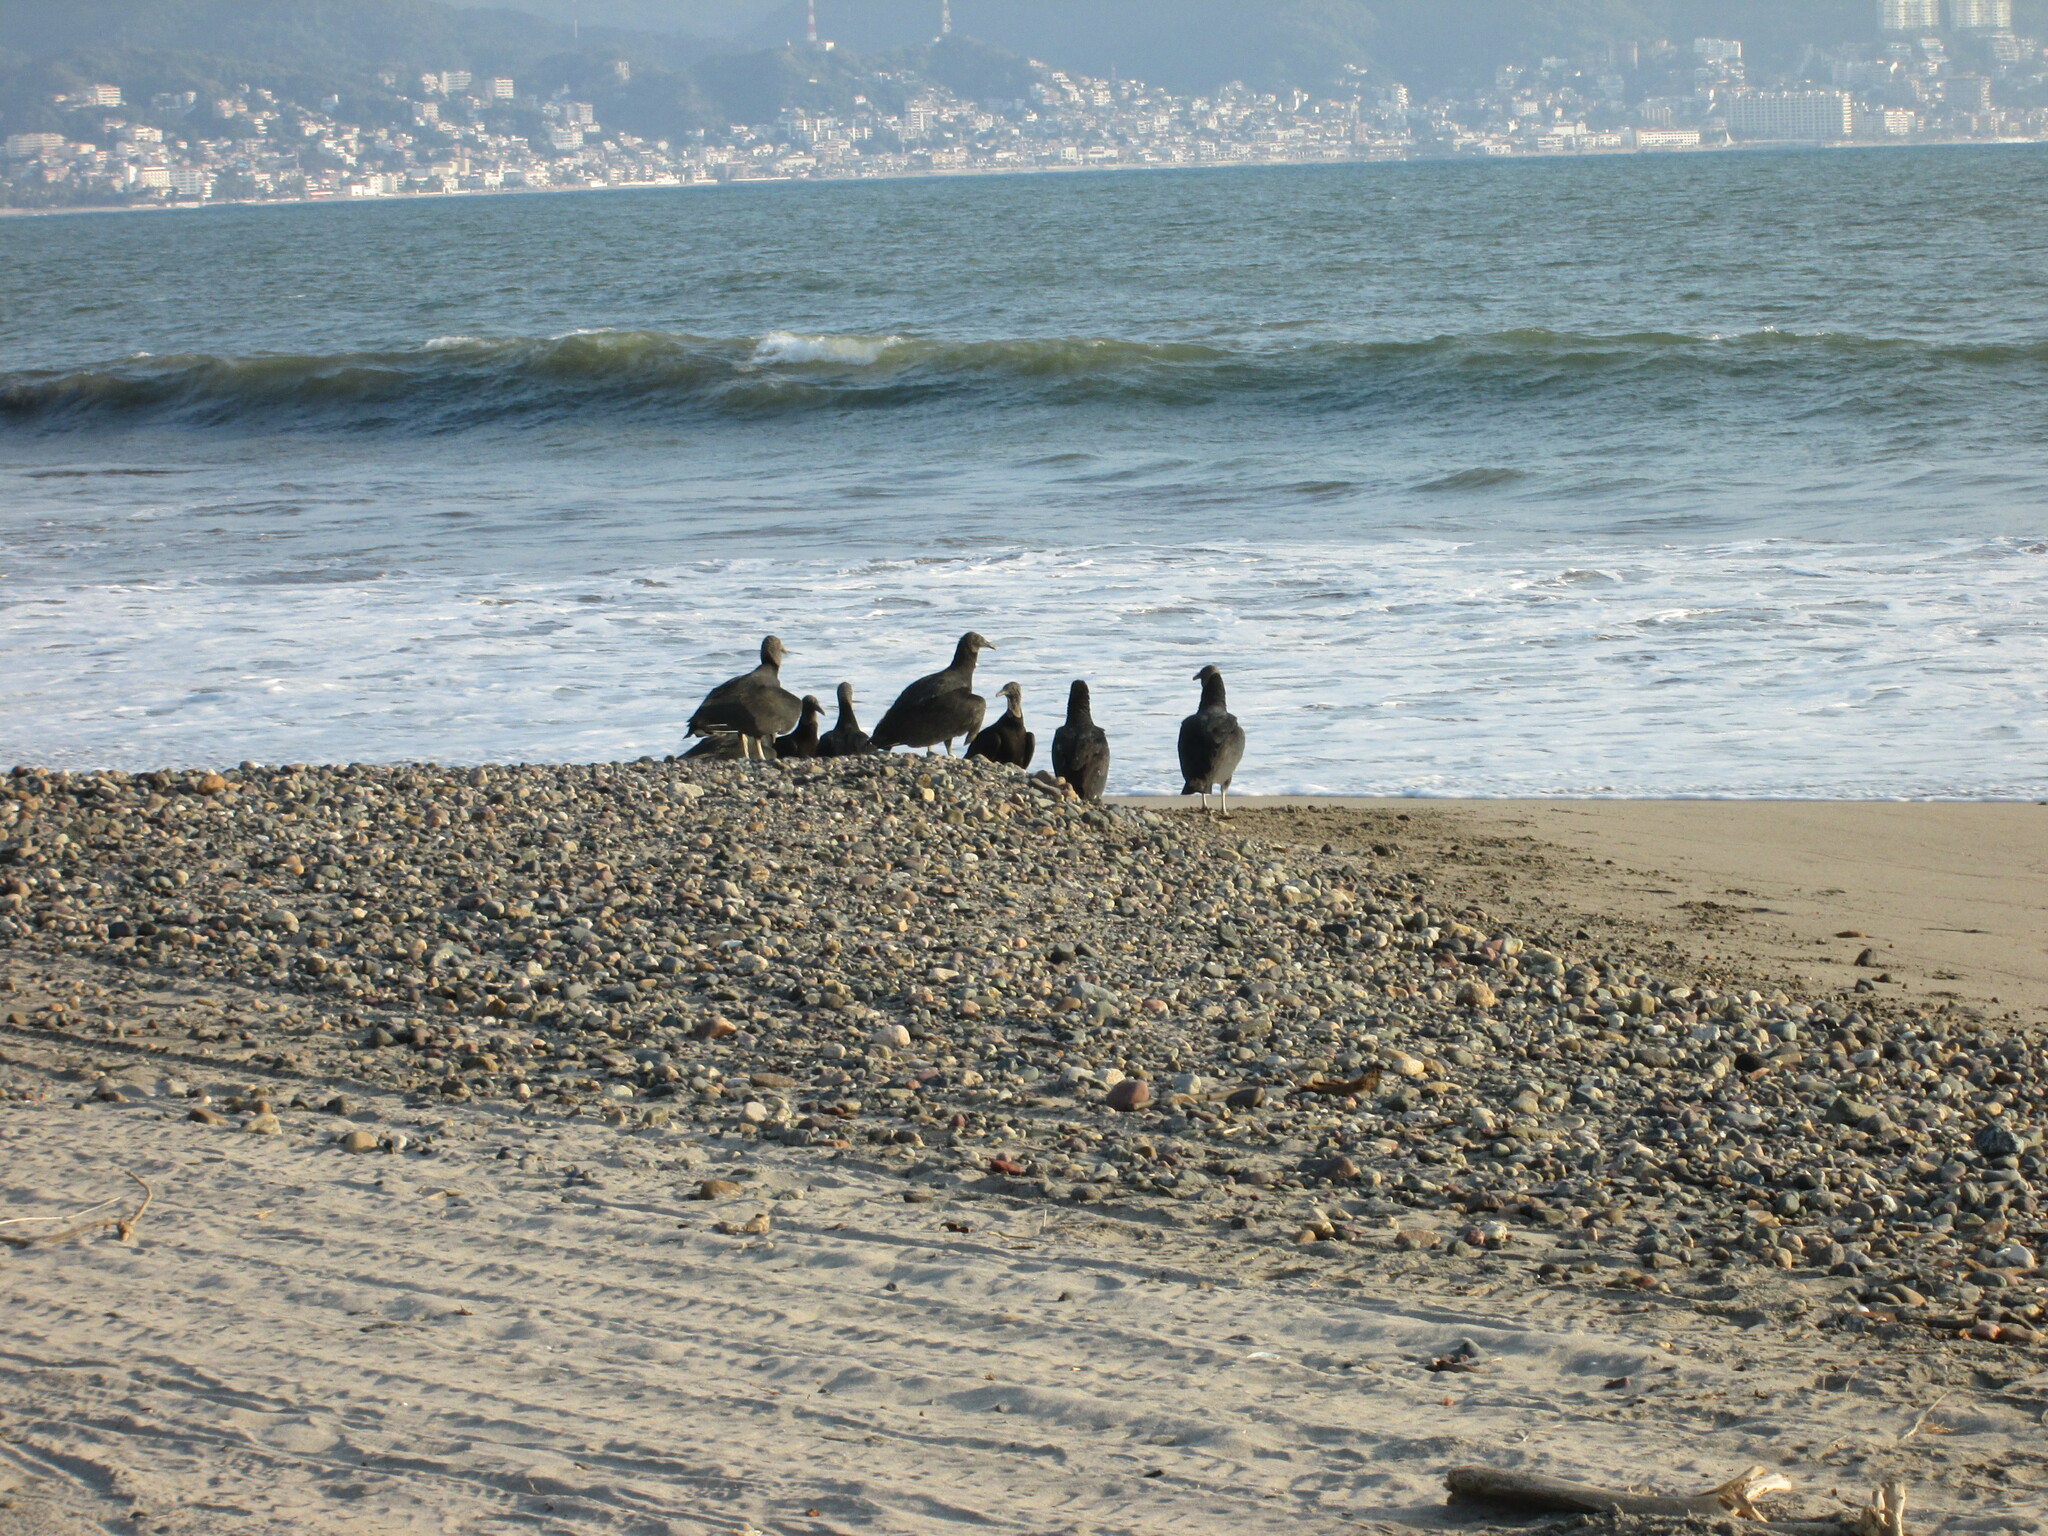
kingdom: Animalia
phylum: Chordata
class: Aves
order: Accipitriformes
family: Cathartidae
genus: Coragyps
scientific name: Coragyps atratus
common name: Black vulture
